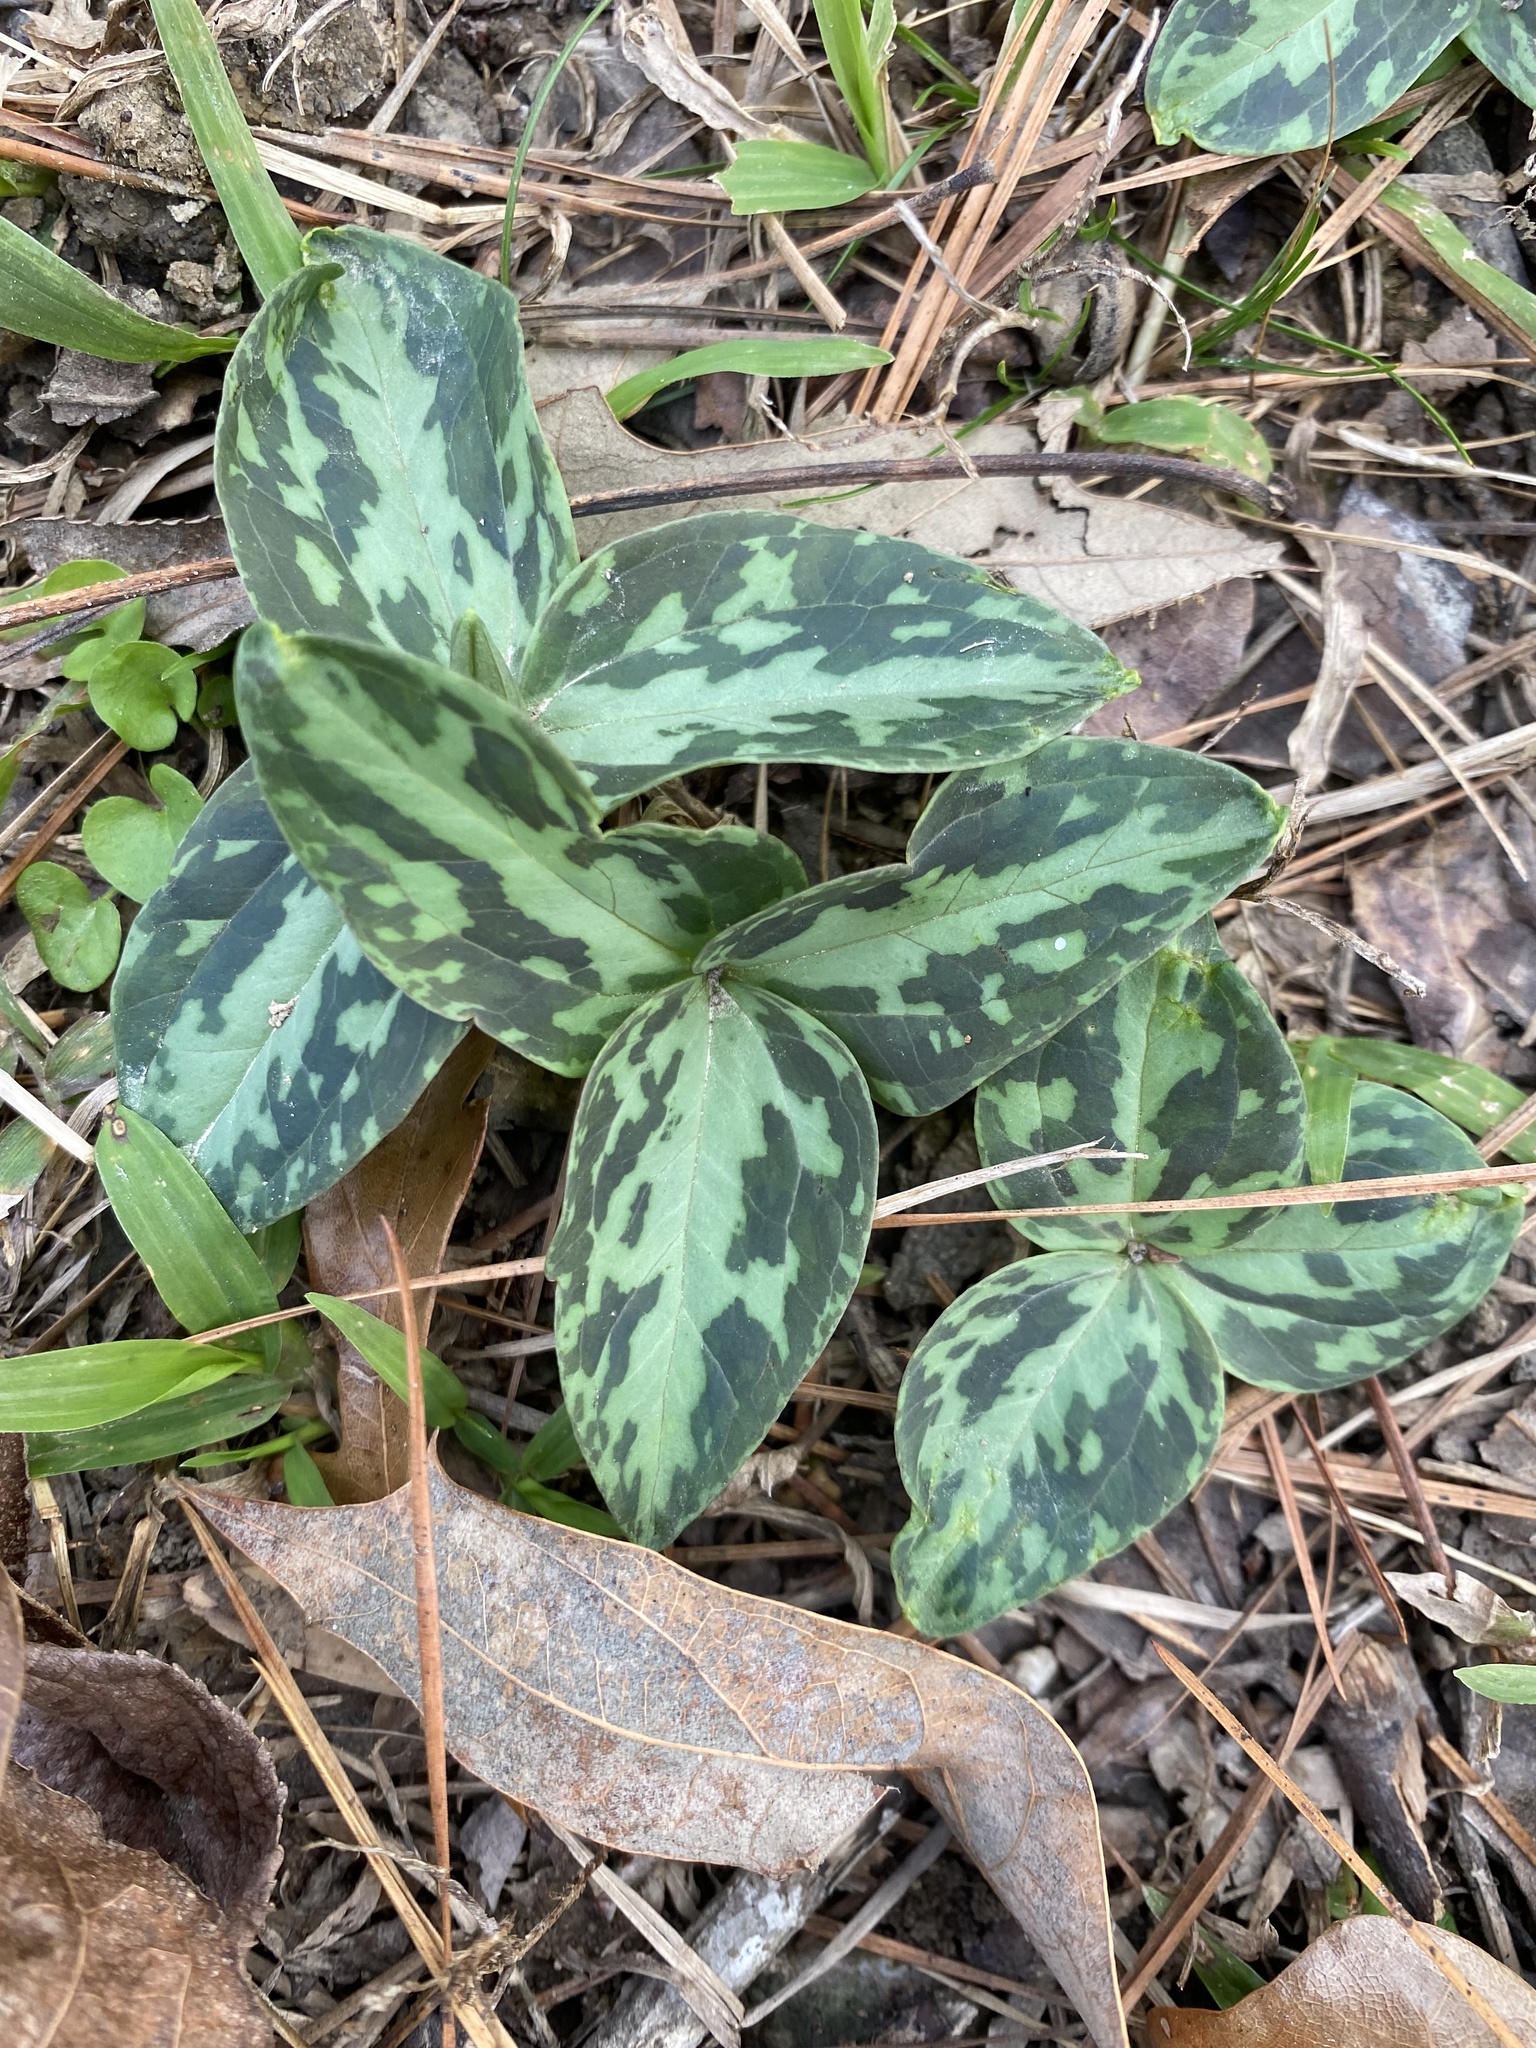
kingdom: Plantae
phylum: Tracheophyta
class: Liliopsida
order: Liliales
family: Melanthiaceae
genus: Trillium
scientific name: Trillium foetidissimum
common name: Mississippi river trillium
